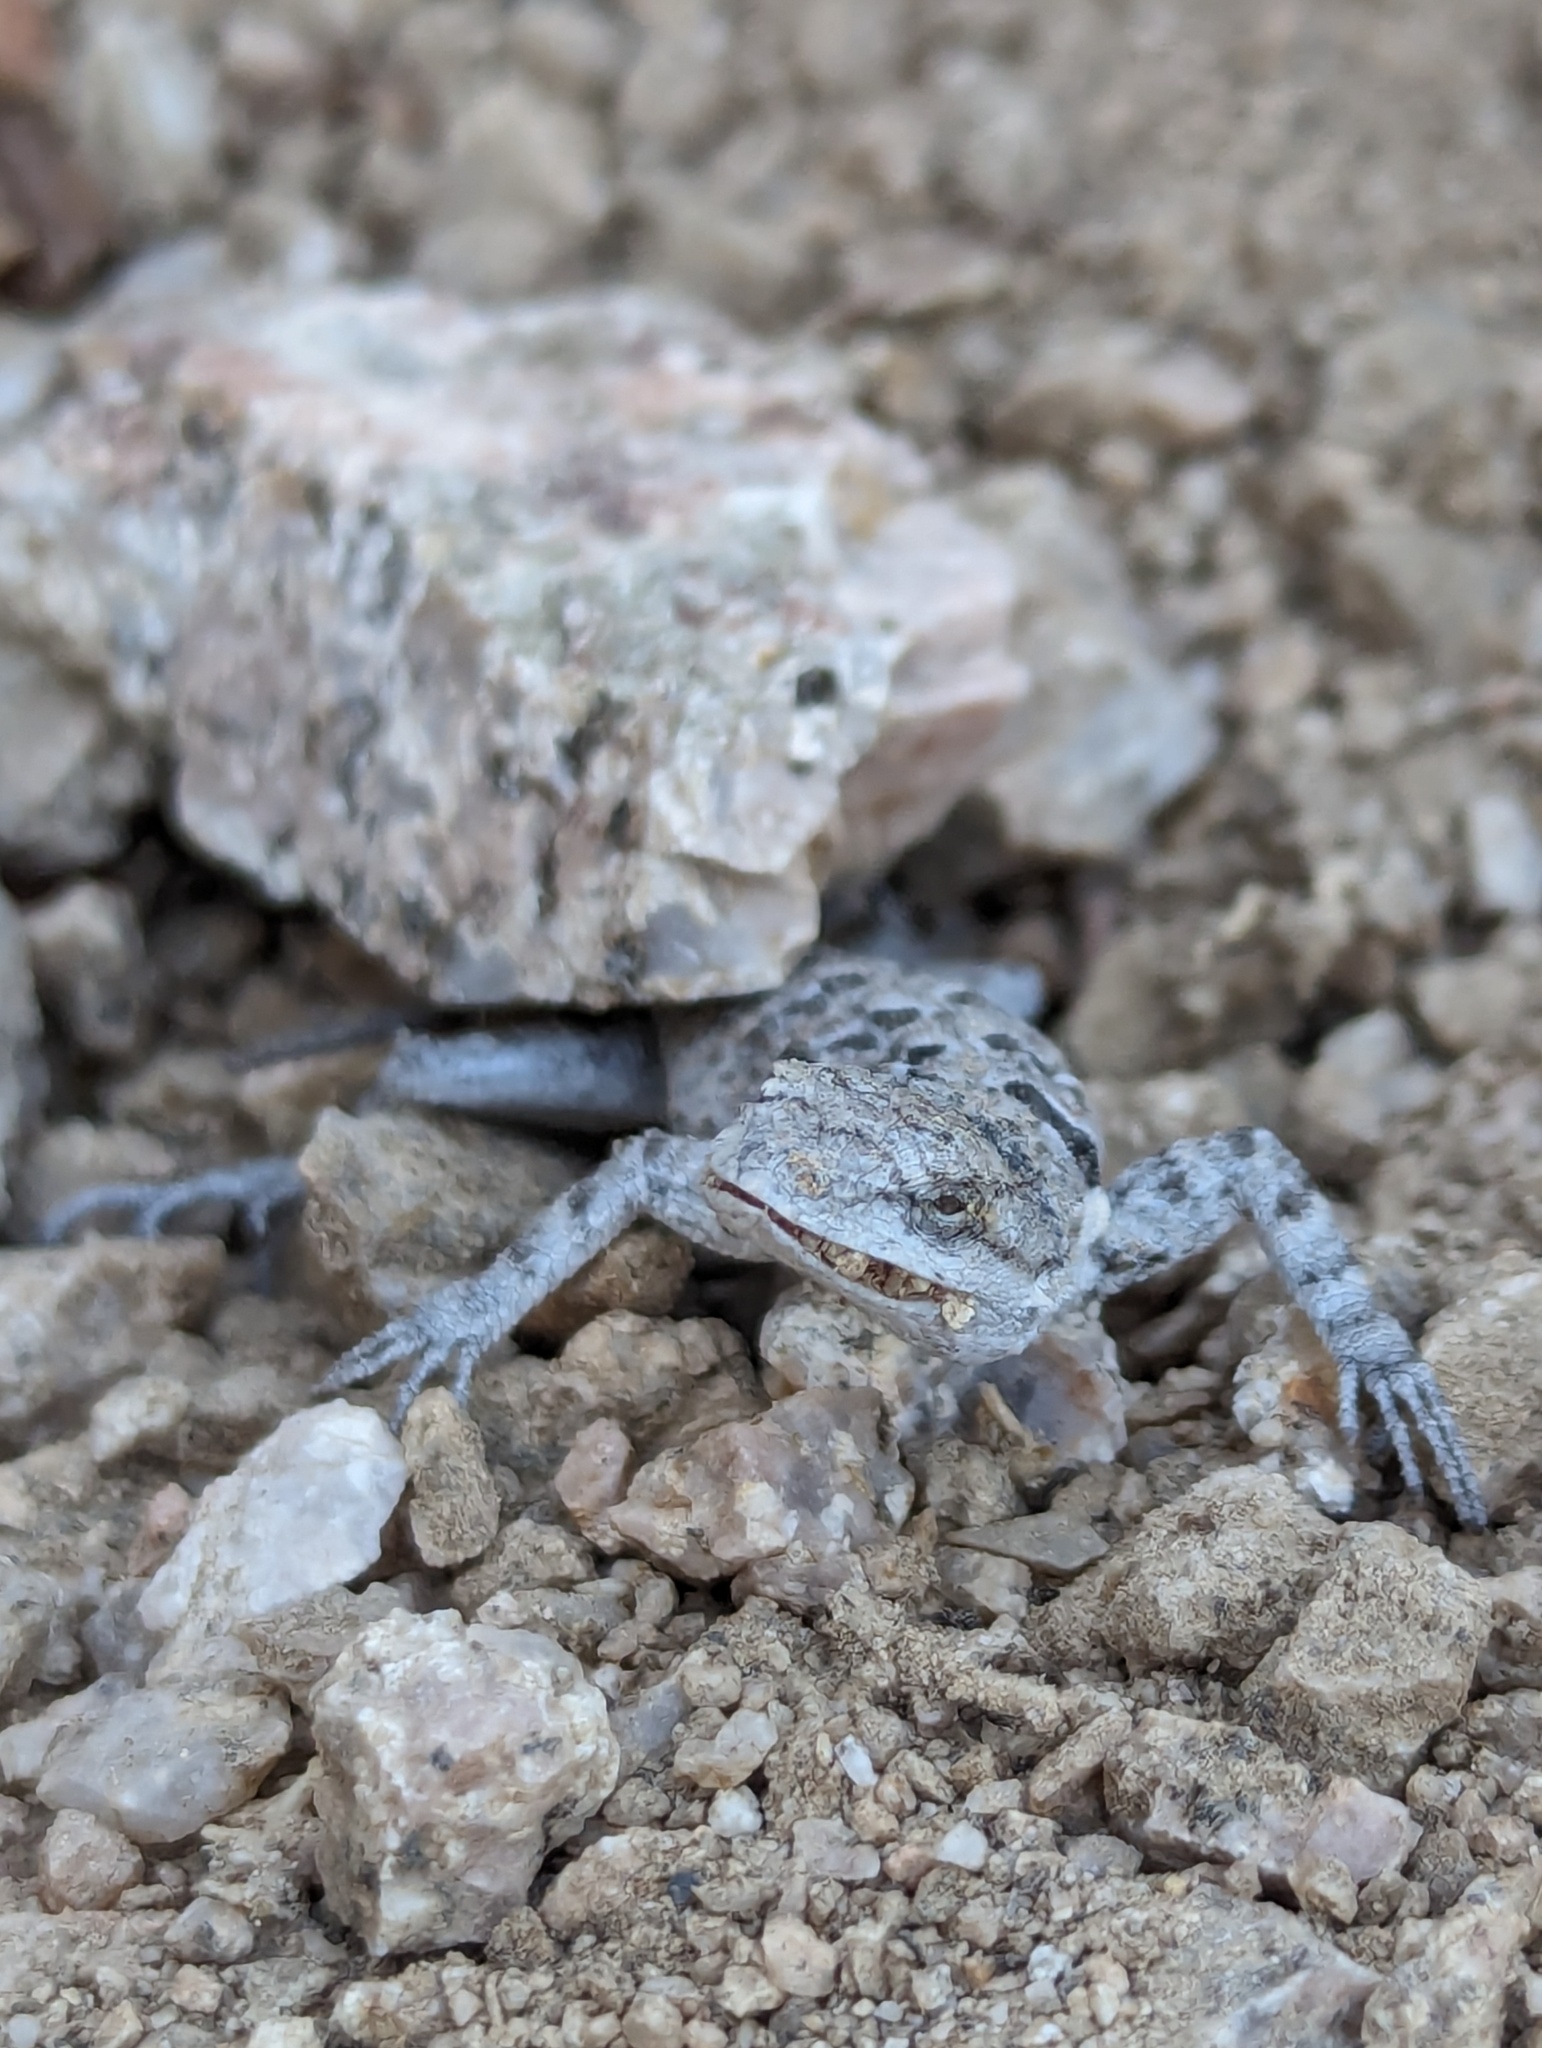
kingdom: Animalia
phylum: Chordata
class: Squamata
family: Phrynosomatidae
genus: Urosaurus
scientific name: Urosaurus nigricauda
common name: Baja california brush lizard
